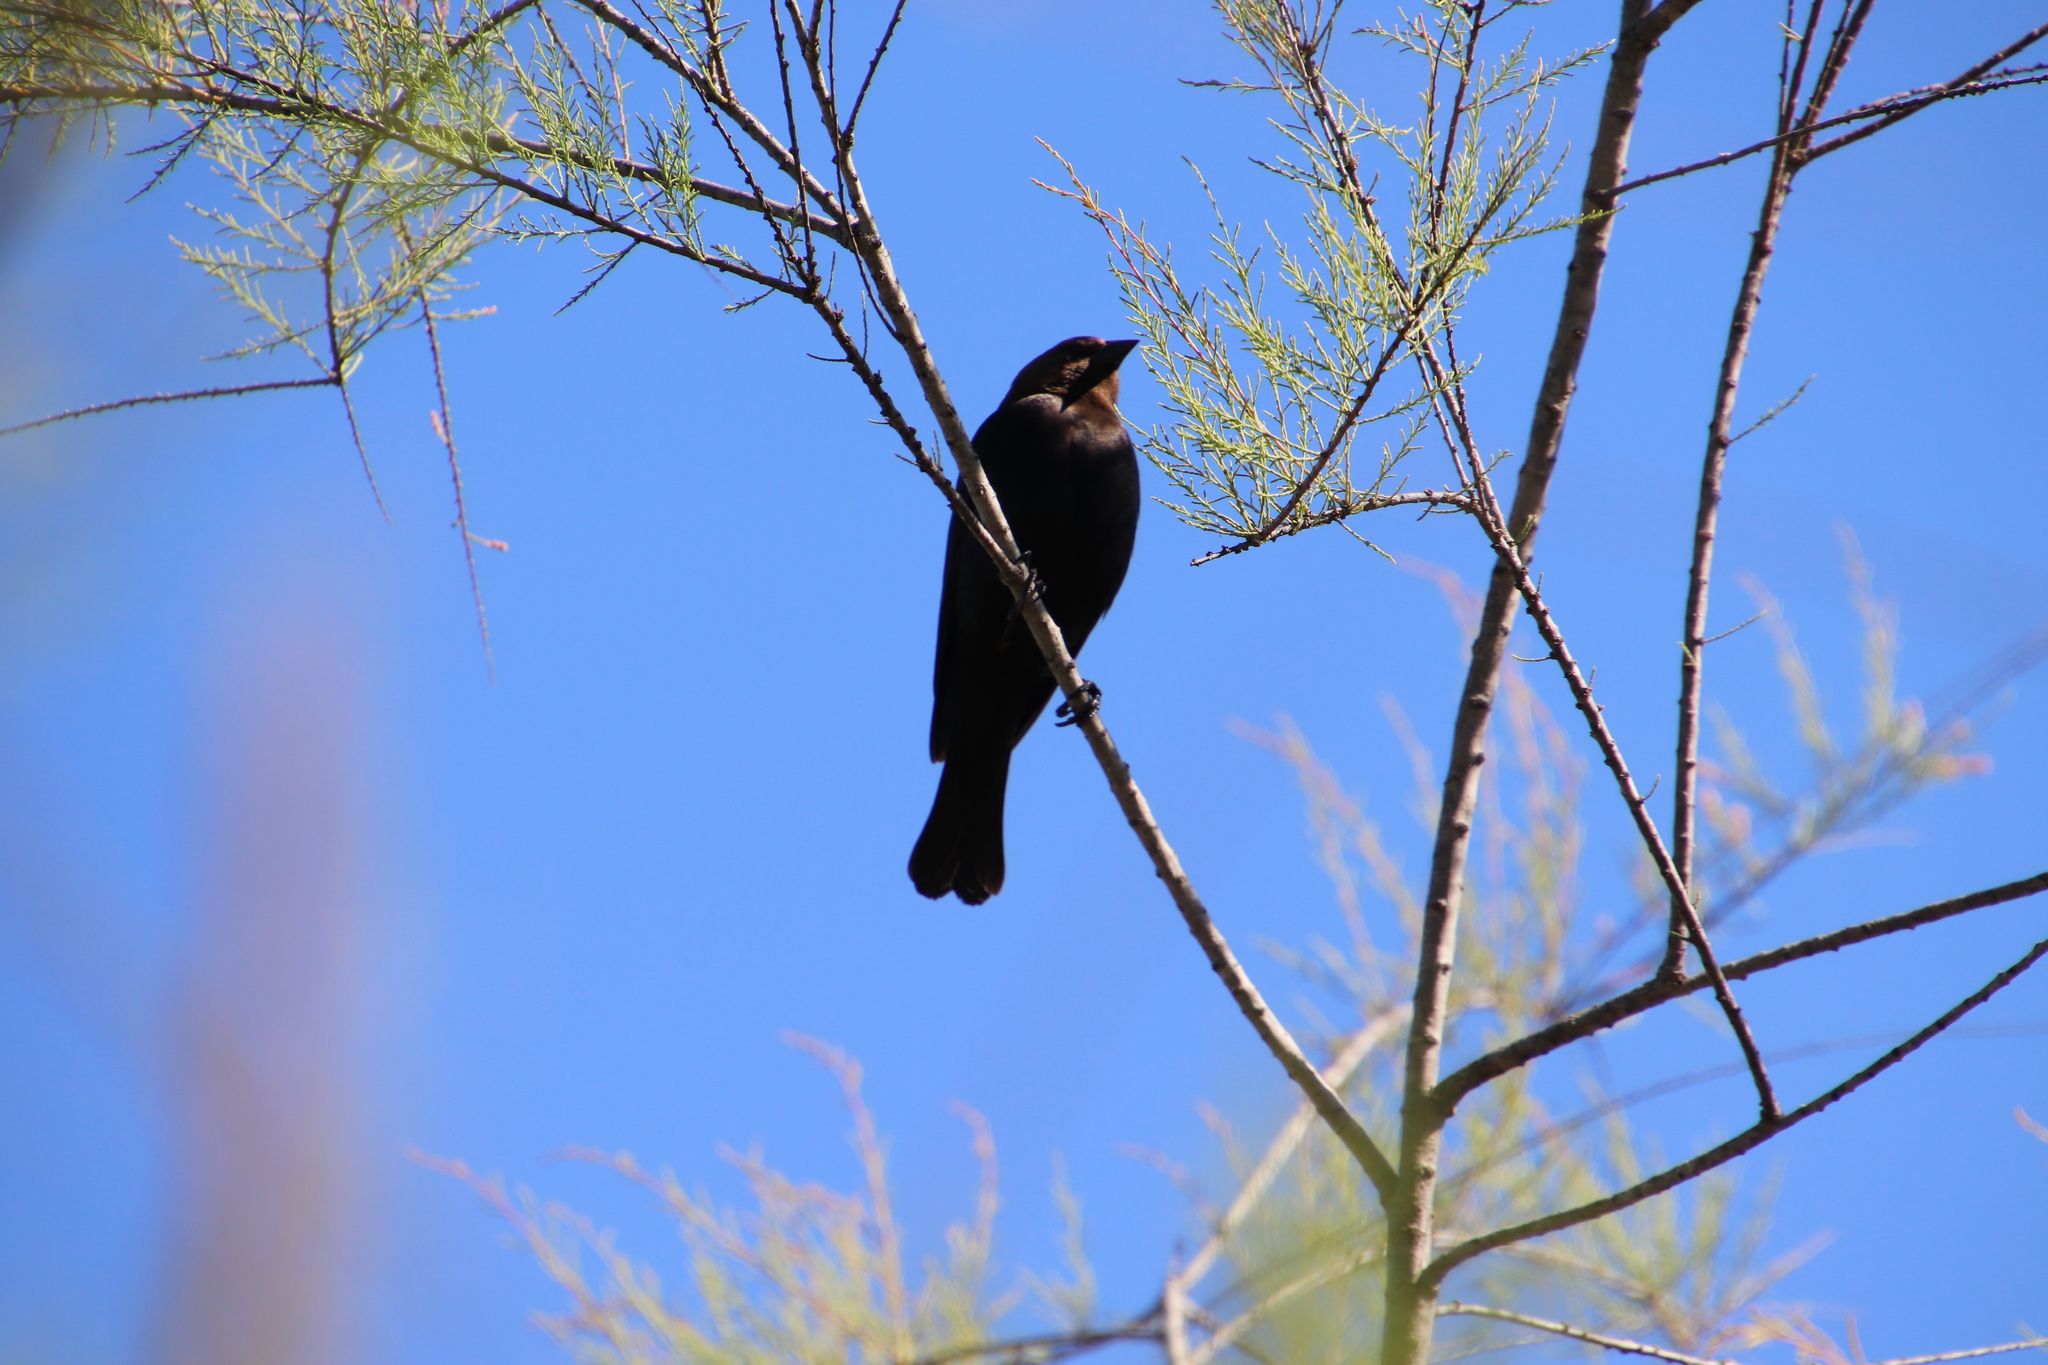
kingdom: Animalia
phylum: Chordata
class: Aves
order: Passeriformes
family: Icteridae
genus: Molothrus
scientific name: Molothrus ater
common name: Brown-headed cowbird
